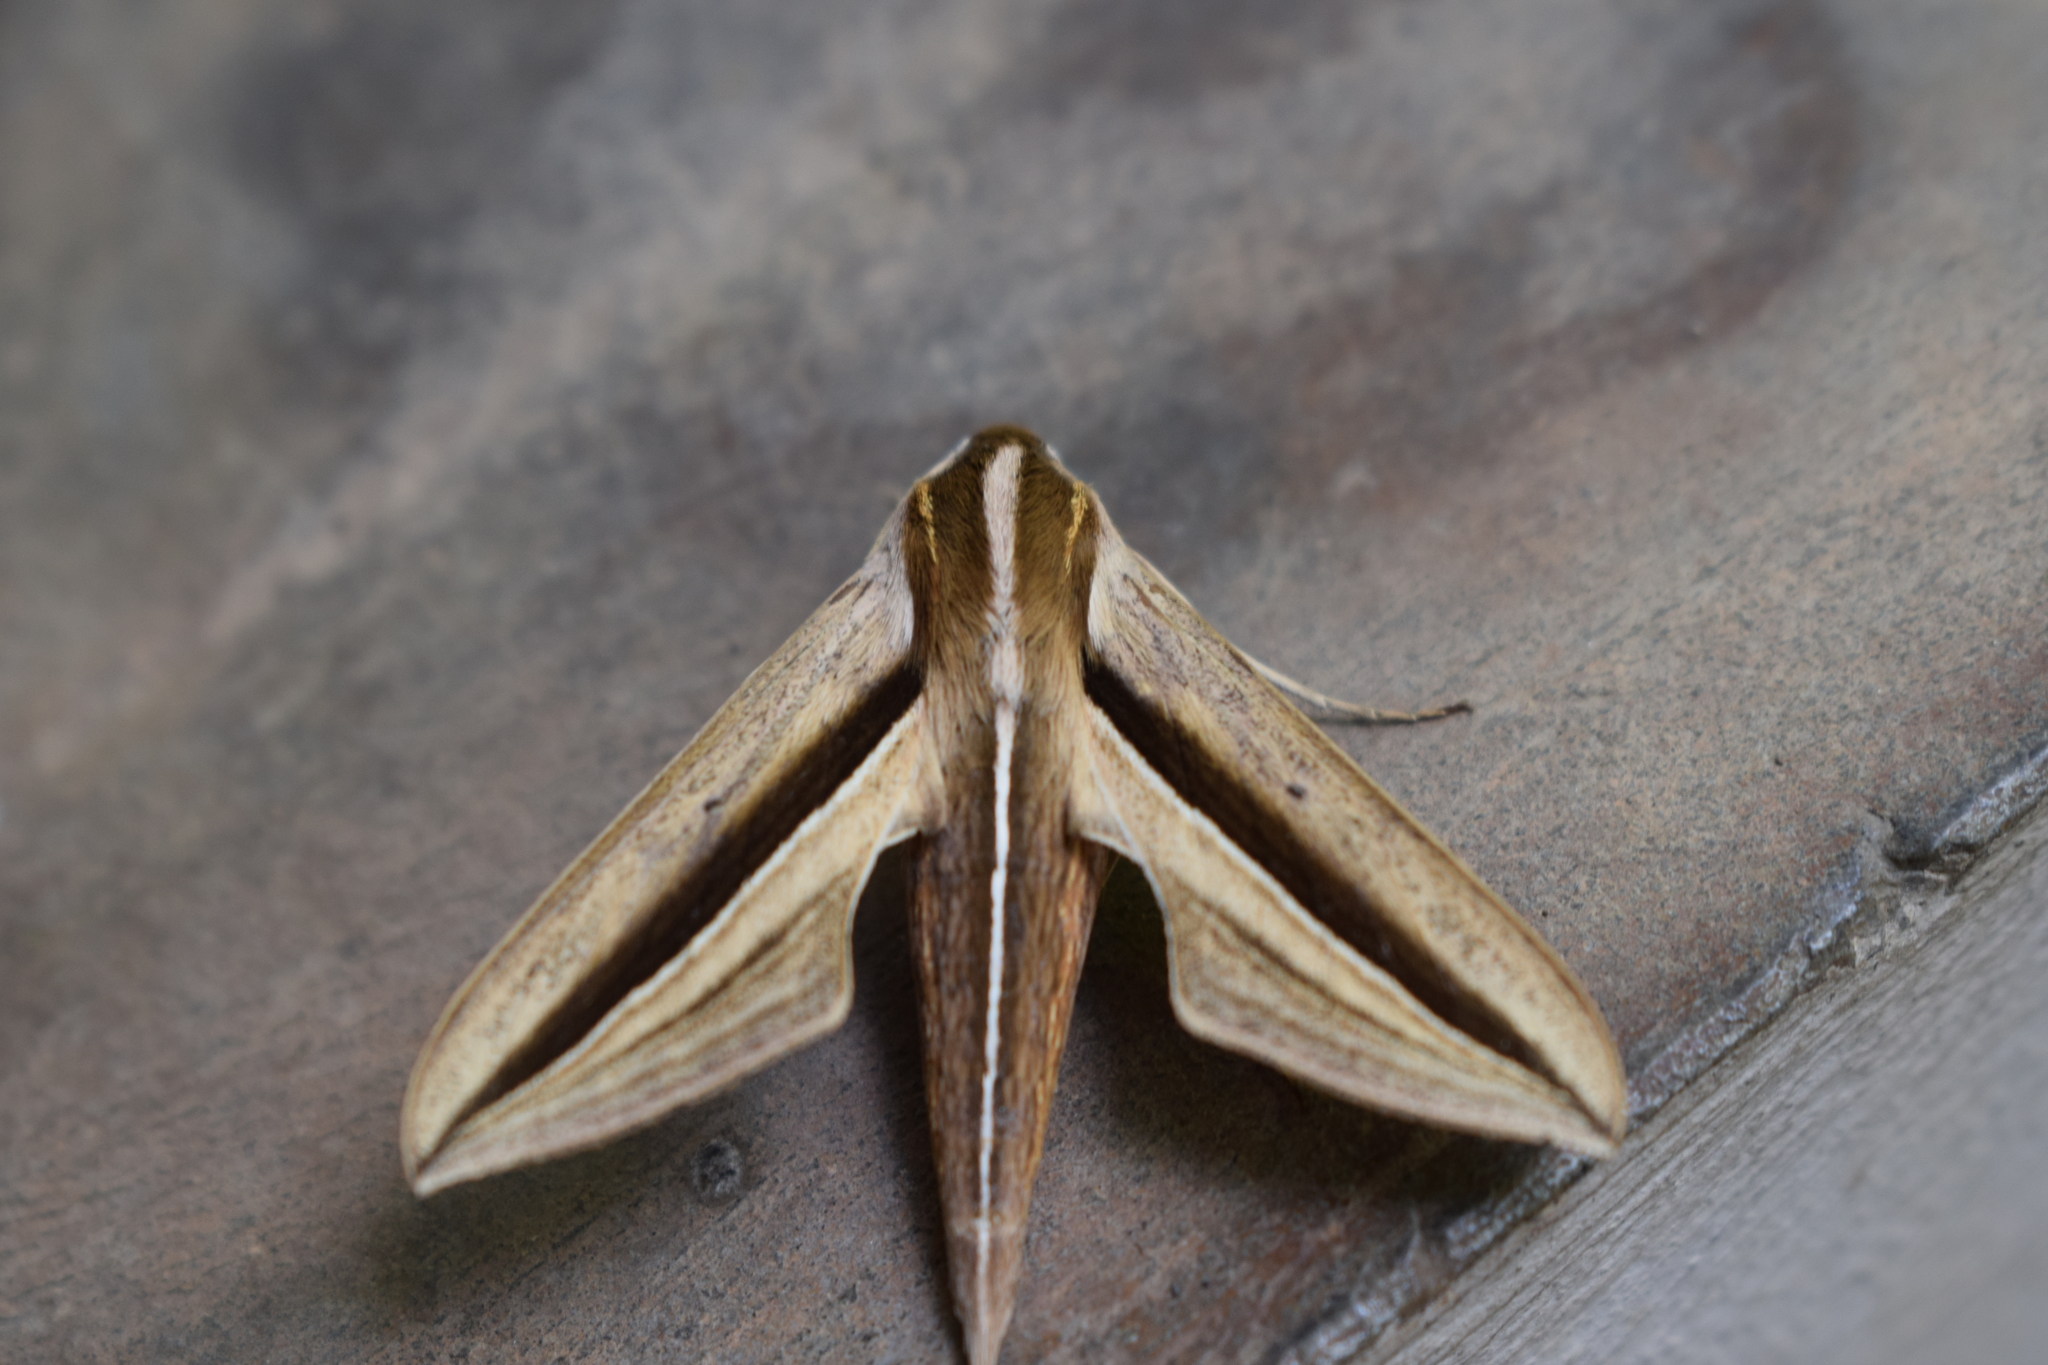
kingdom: Animalia
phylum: Arthropoda
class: Insecta
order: Lepidoptera
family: Sphingidae
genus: Theretra
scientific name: Theretra silhetensis
